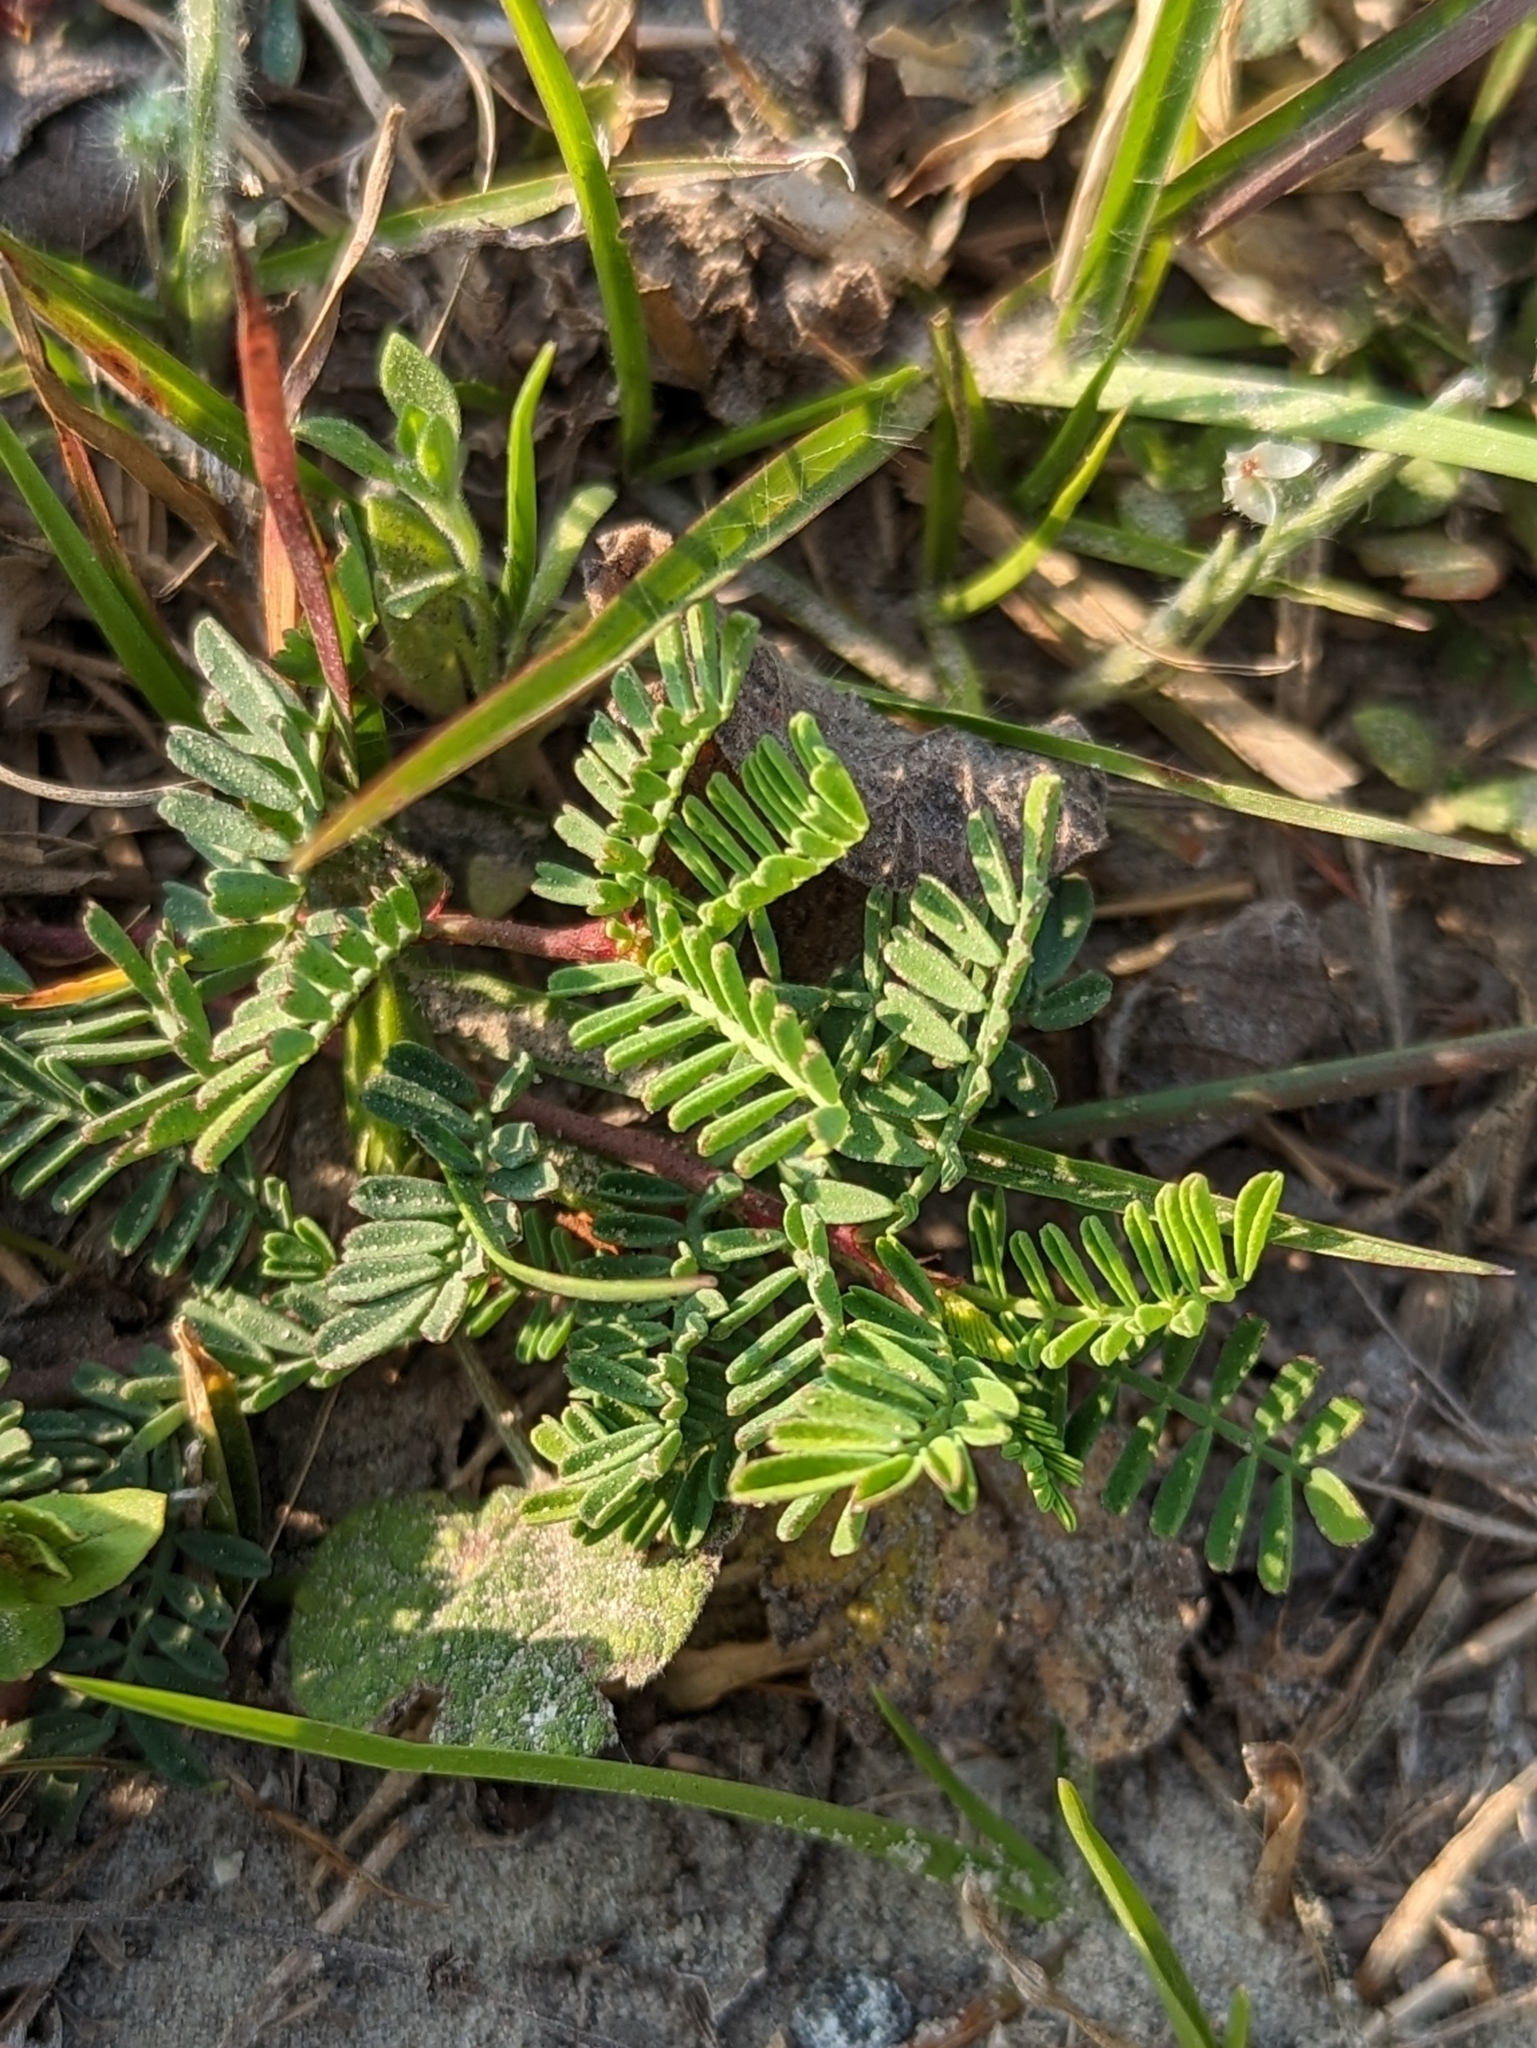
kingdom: Plantae
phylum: Tracheophyta
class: Magnoliopsida
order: Fabales
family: Fabaceae
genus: Dalea
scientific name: Dalea emarginata
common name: Wedgeleaf prairie clover
